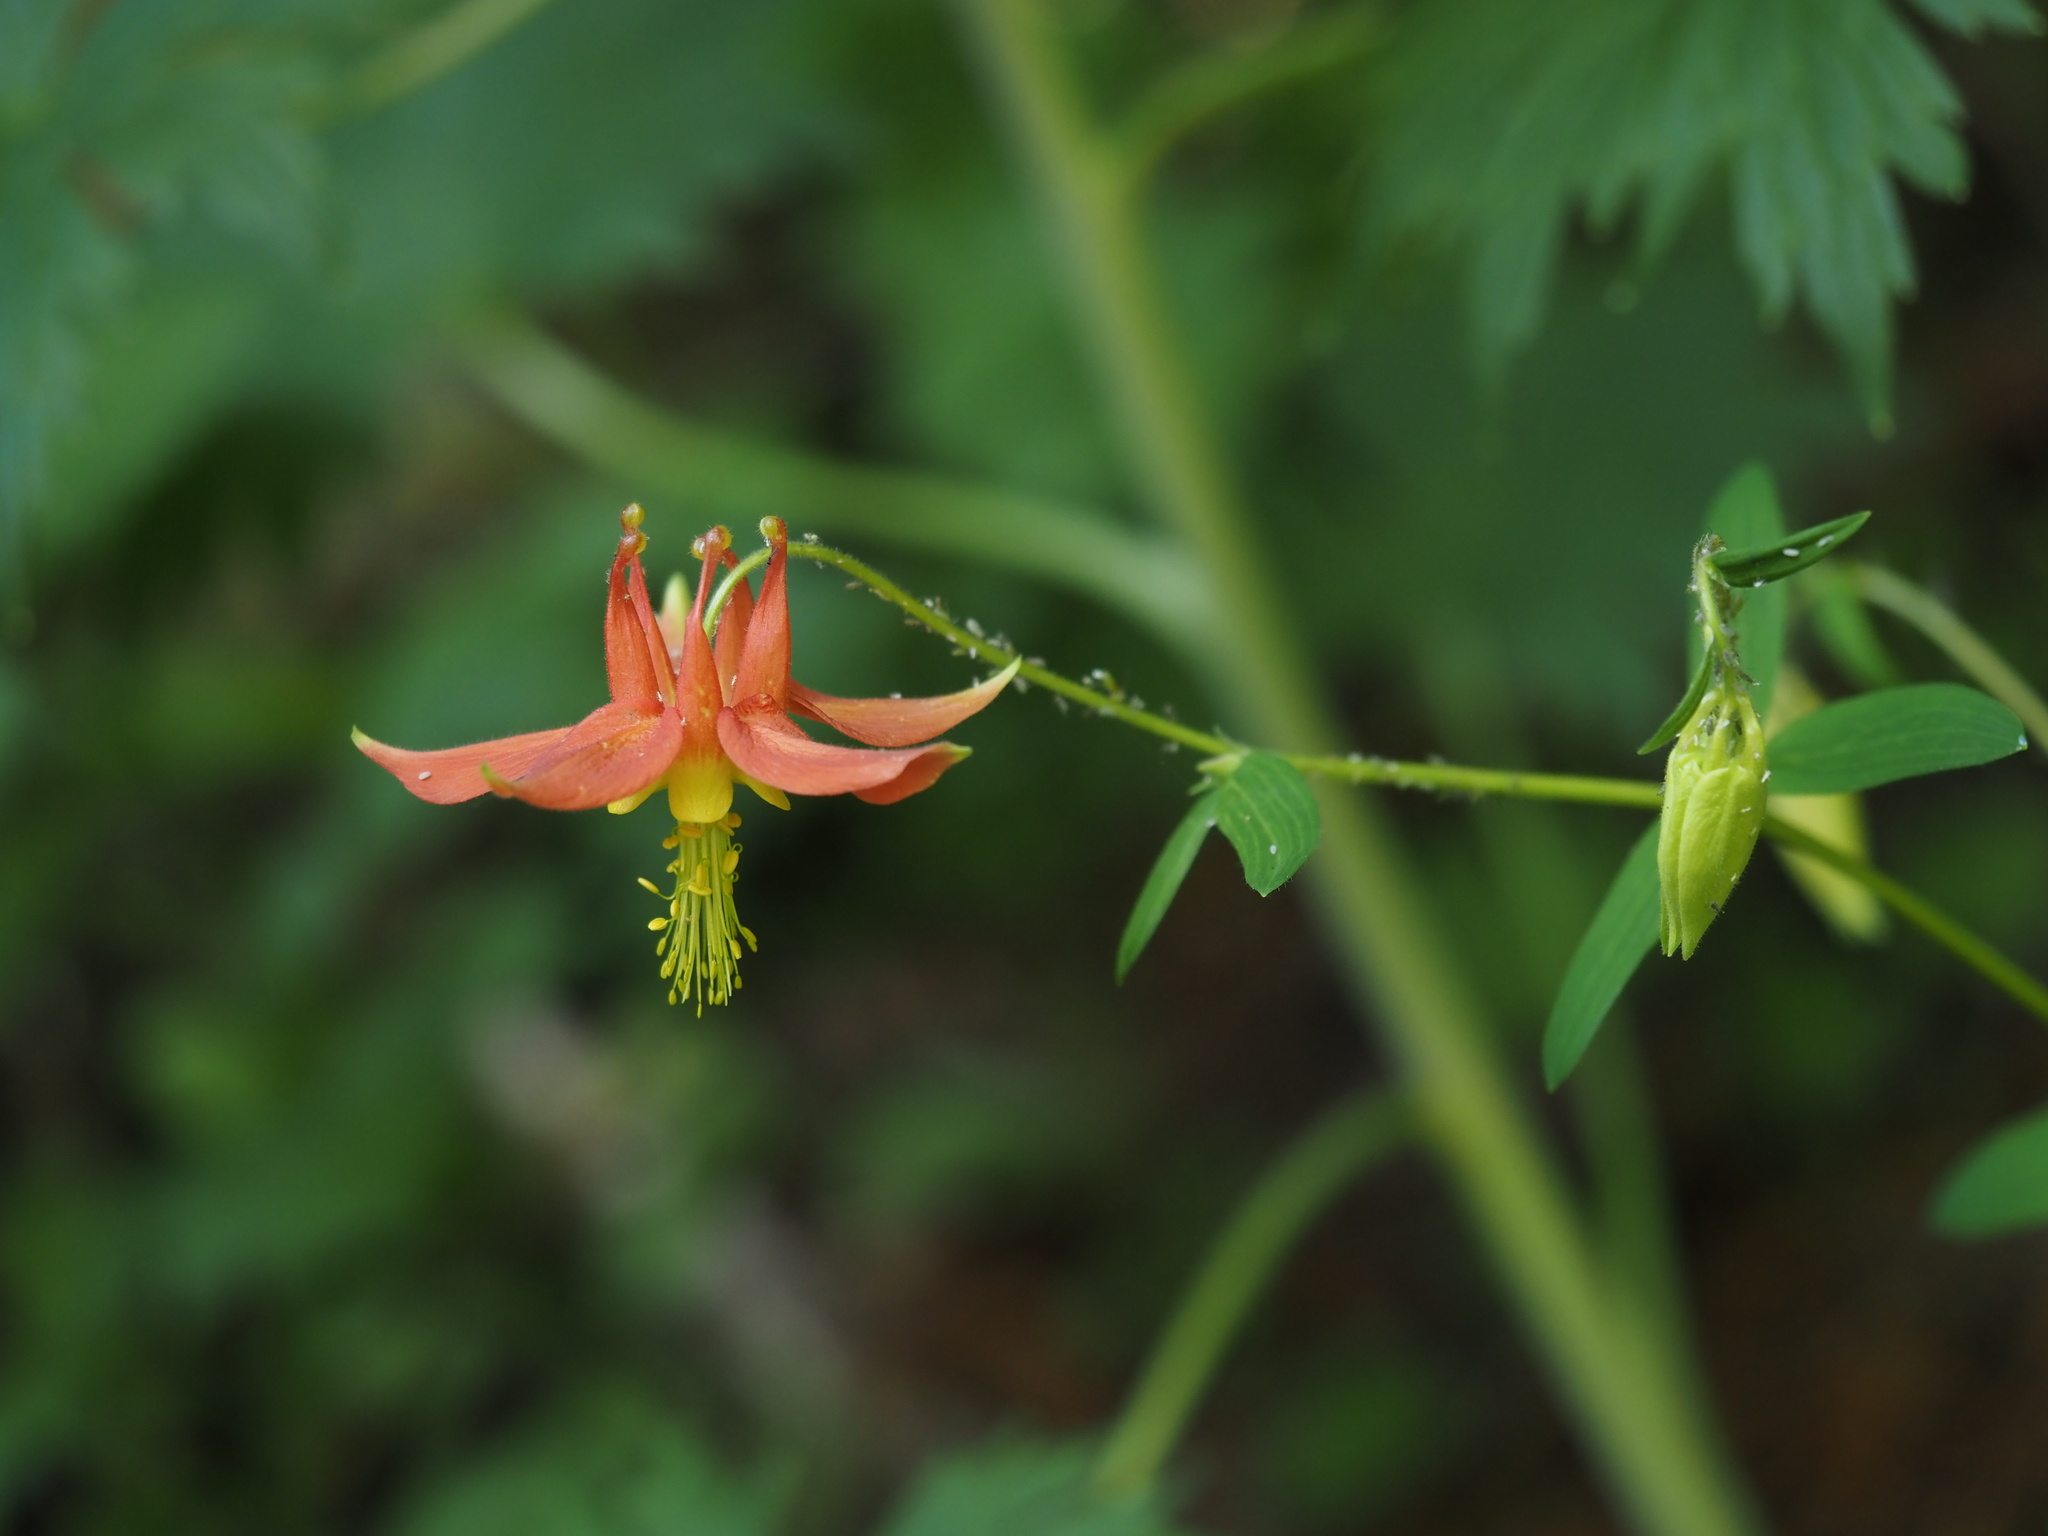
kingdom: Plantae
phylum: Tracheophyta
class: Magnoliopsida
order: Ranunculales
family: Ranunculaceae
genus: Aquilegia
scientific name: Aquilegia formosa
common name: Sitka columbine
